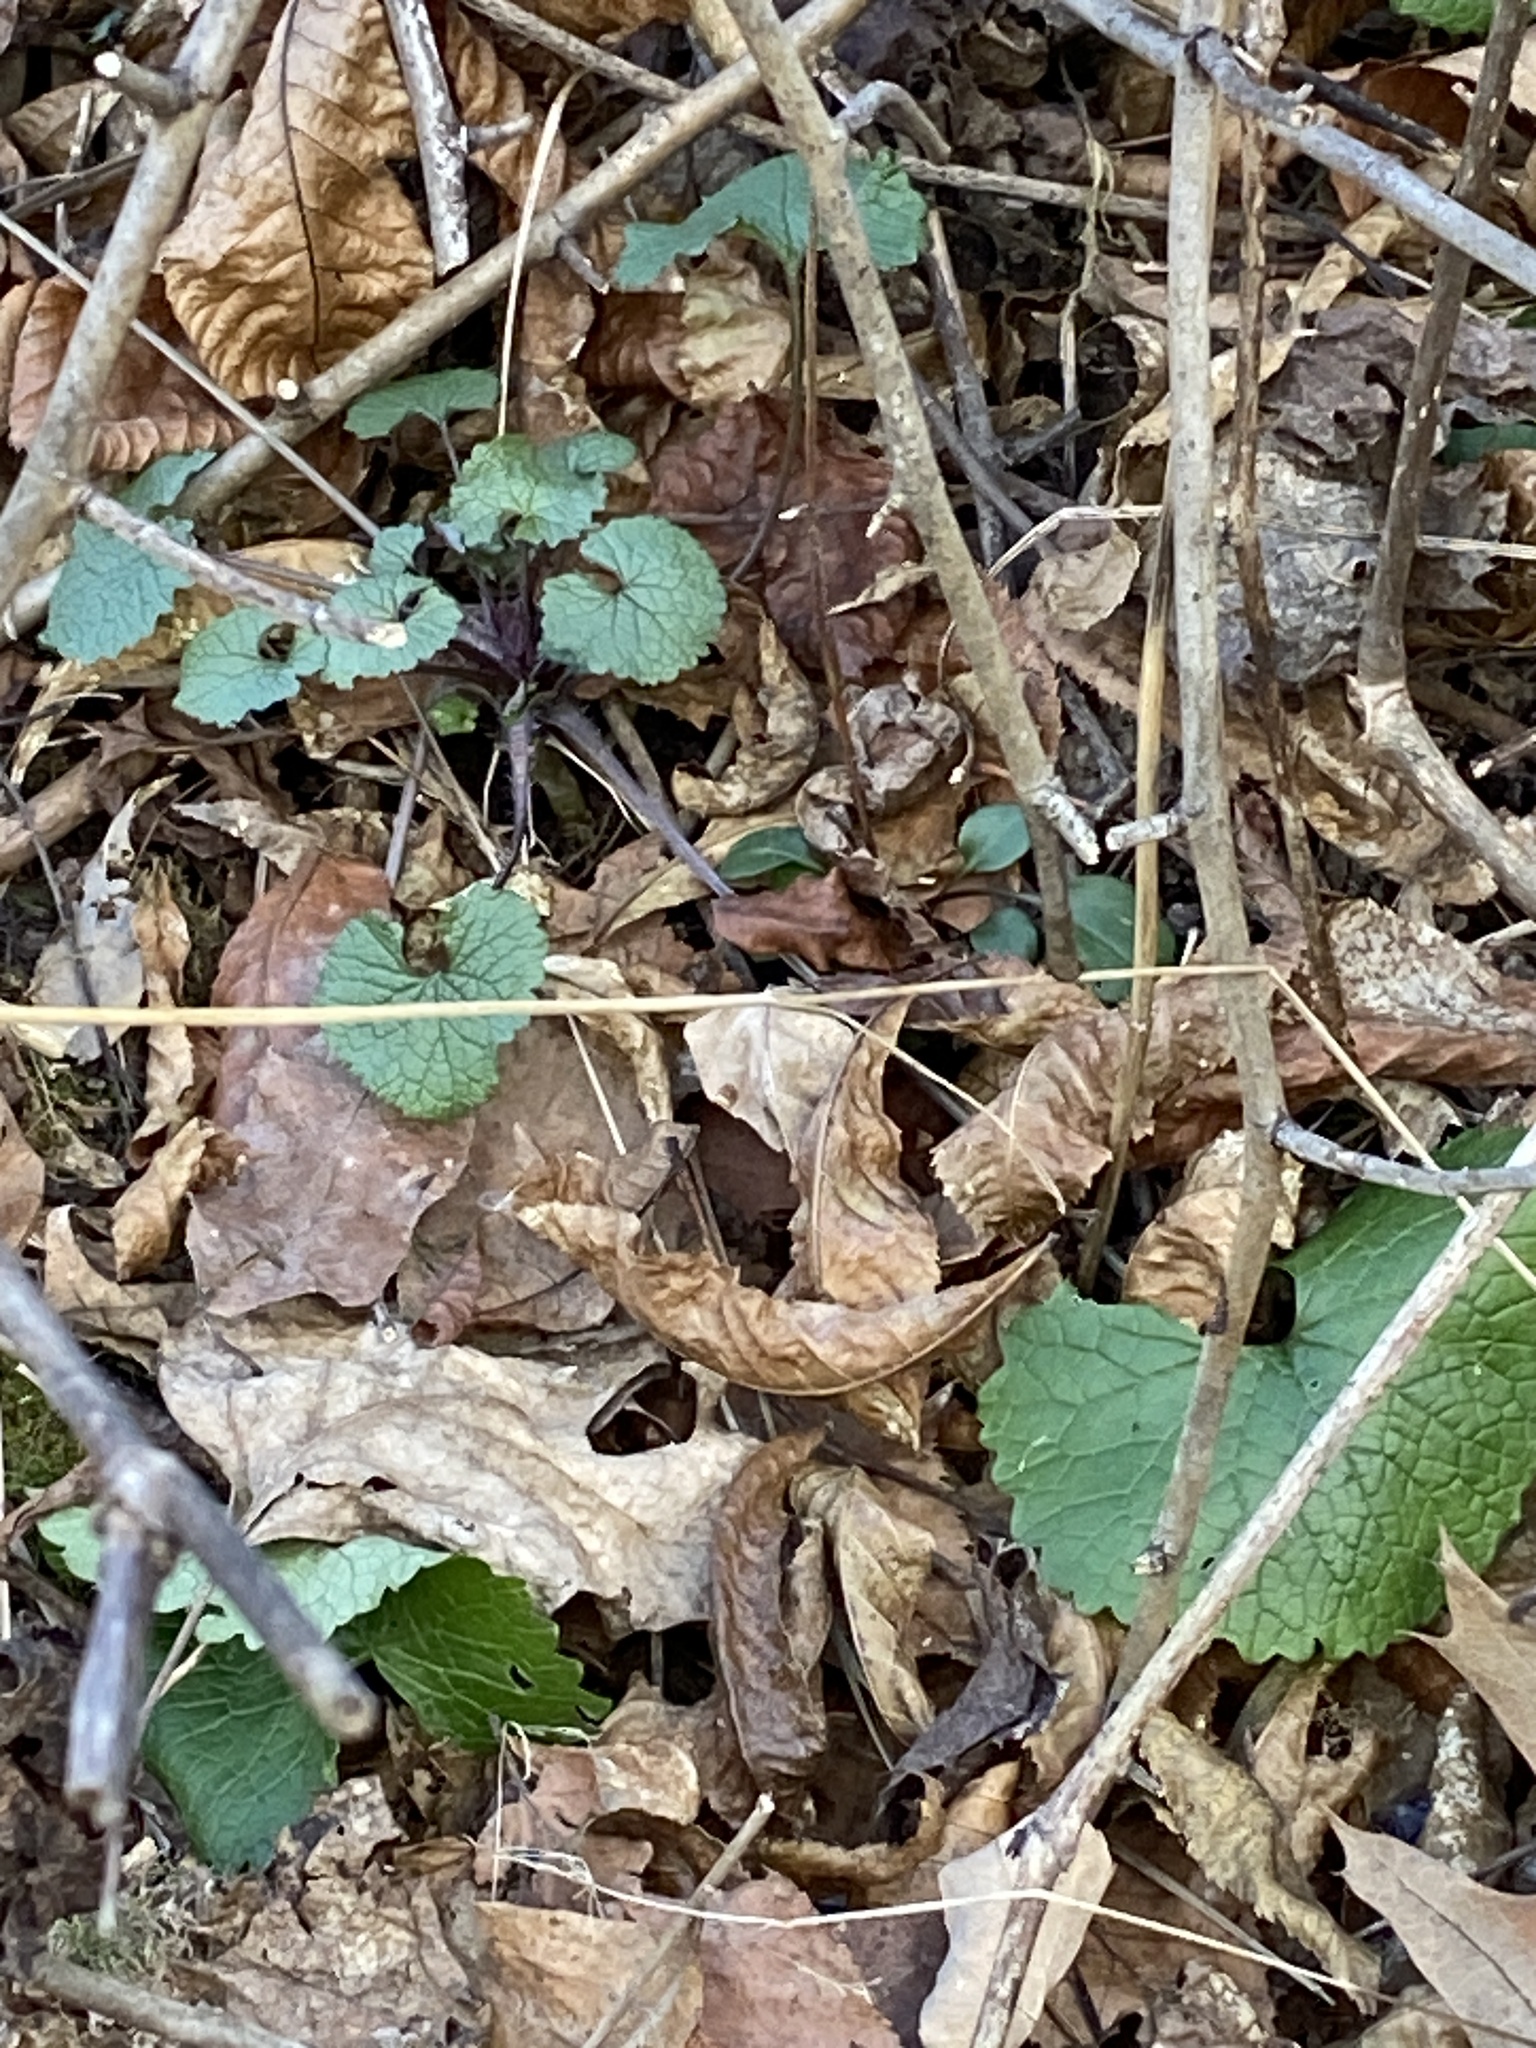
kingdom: Plantae
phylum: Tracheophyta
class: Magnoliopsida
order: Brassicales
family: Brassicaceae
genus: Alliaria
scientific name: Alliaria petiolata
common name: Garlic mustard
